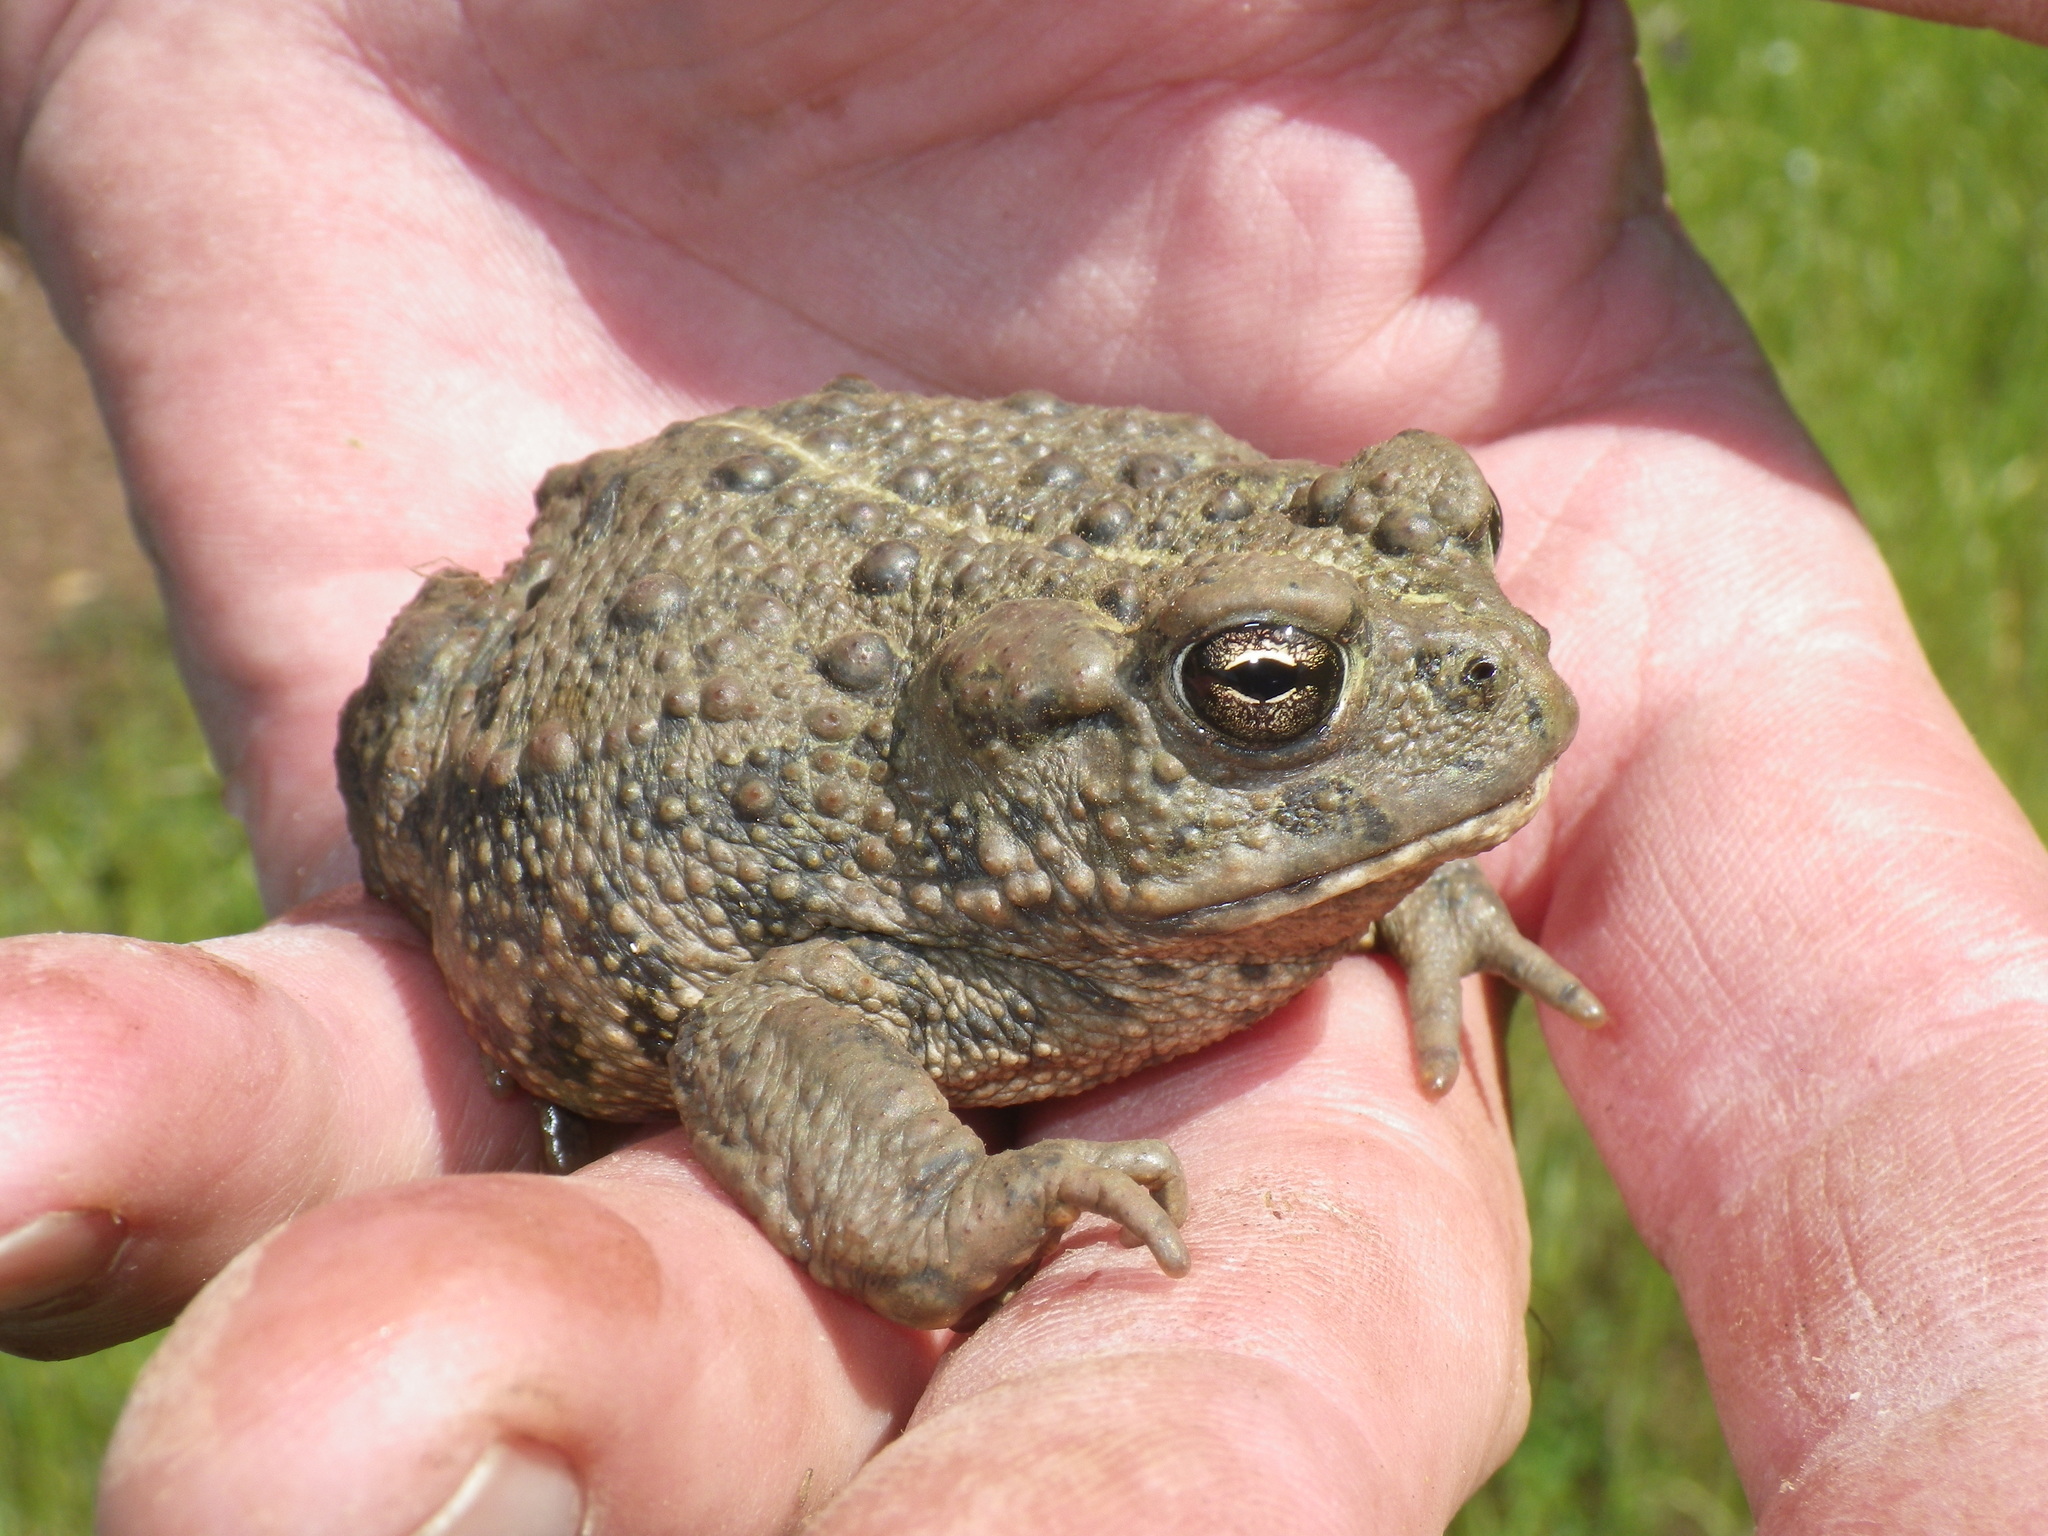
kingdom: Animalia
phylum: Chordata
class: Amphibia
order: Anura
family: Bufonidae
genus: Anaxyrus
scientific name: Anaxyrus boreas
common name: Western toad
